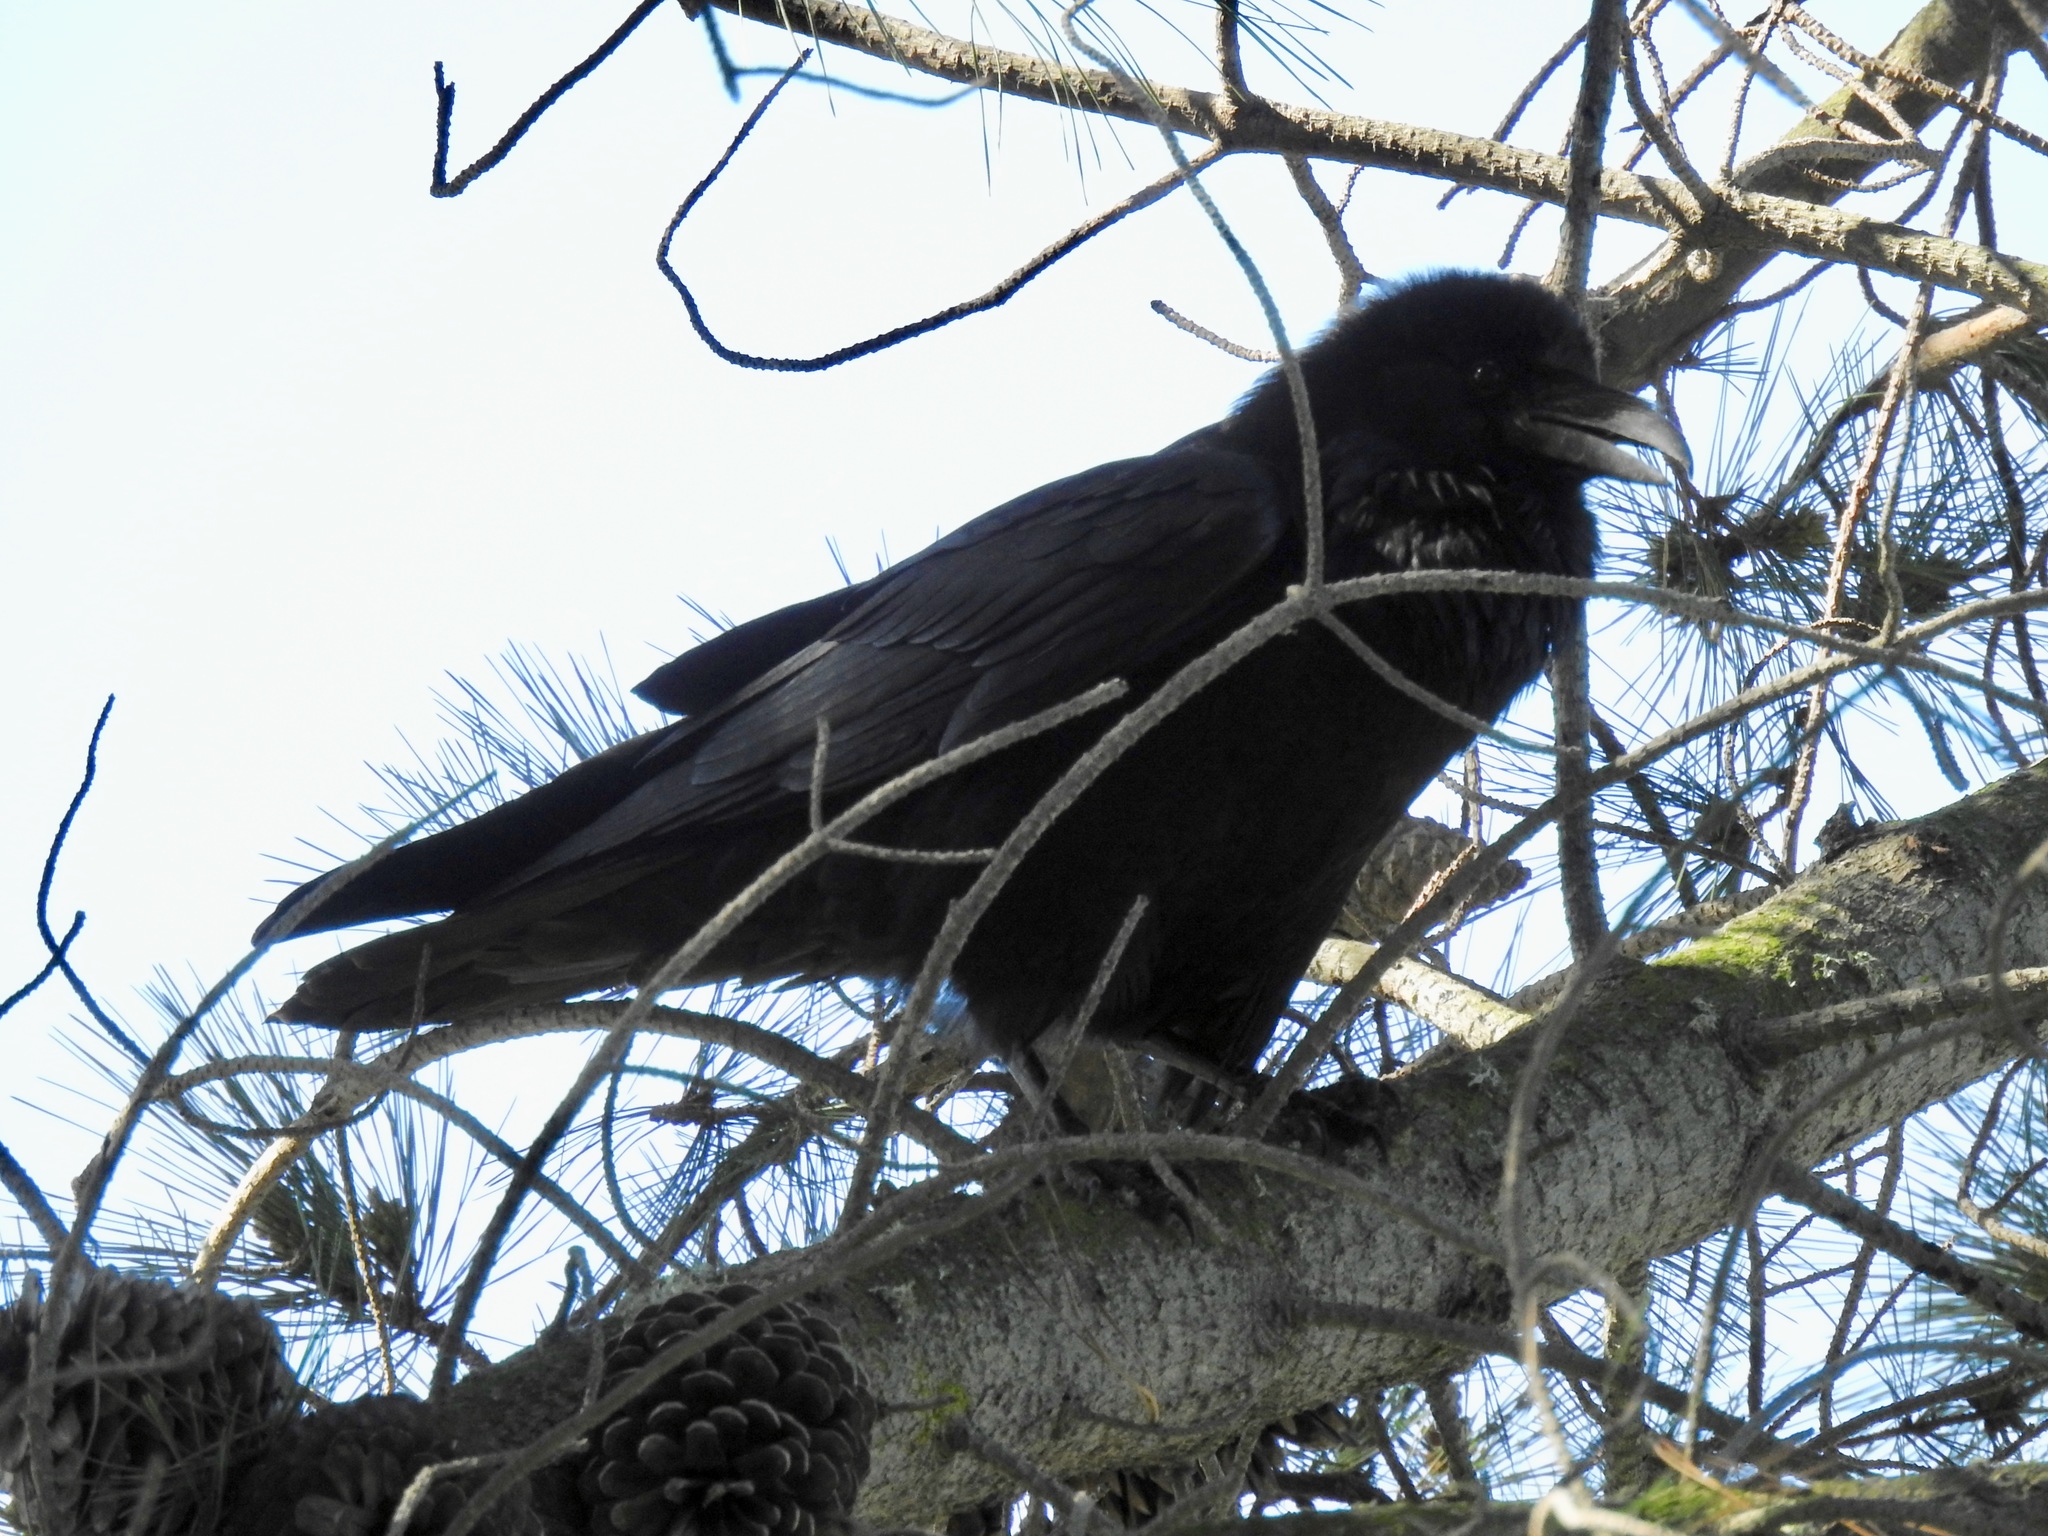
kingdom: Animalia
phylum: Chordata
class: Aves
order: Passeriformes
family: Corvidae
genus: Corvus
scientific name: Corvus corax
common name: Common raven
